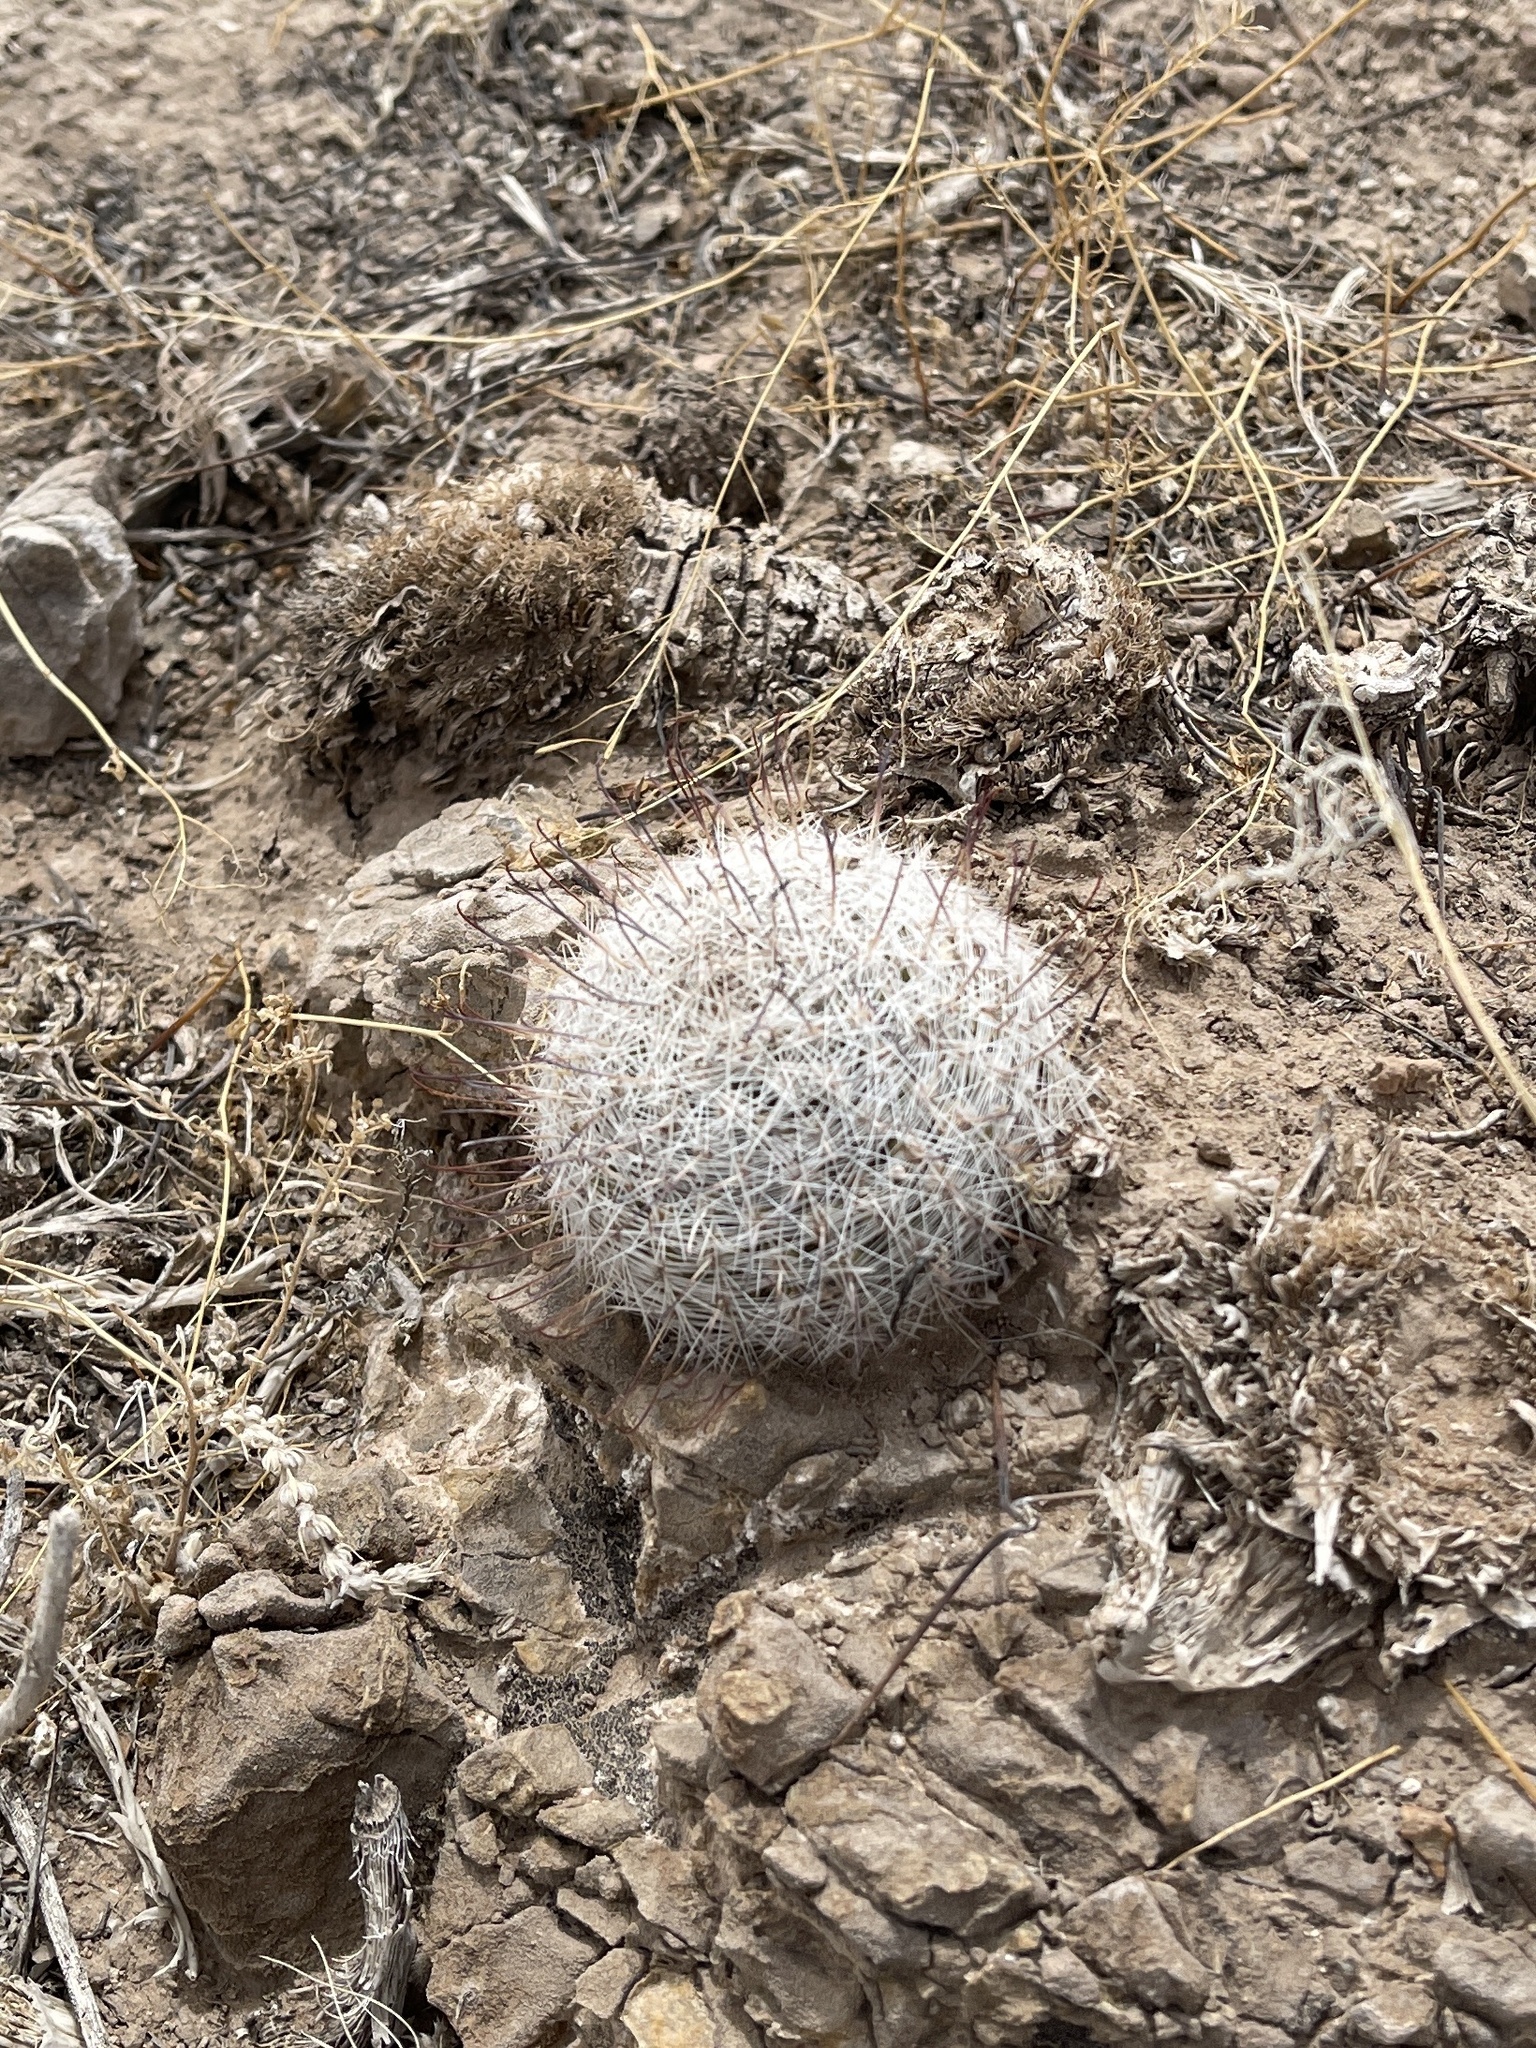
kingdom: Plantae
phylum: Tracheophyta
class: Magnoliopsida
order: Caryophyllales
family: Cactaceae
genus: Cochemiea
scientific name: Cochemiea grahamii
